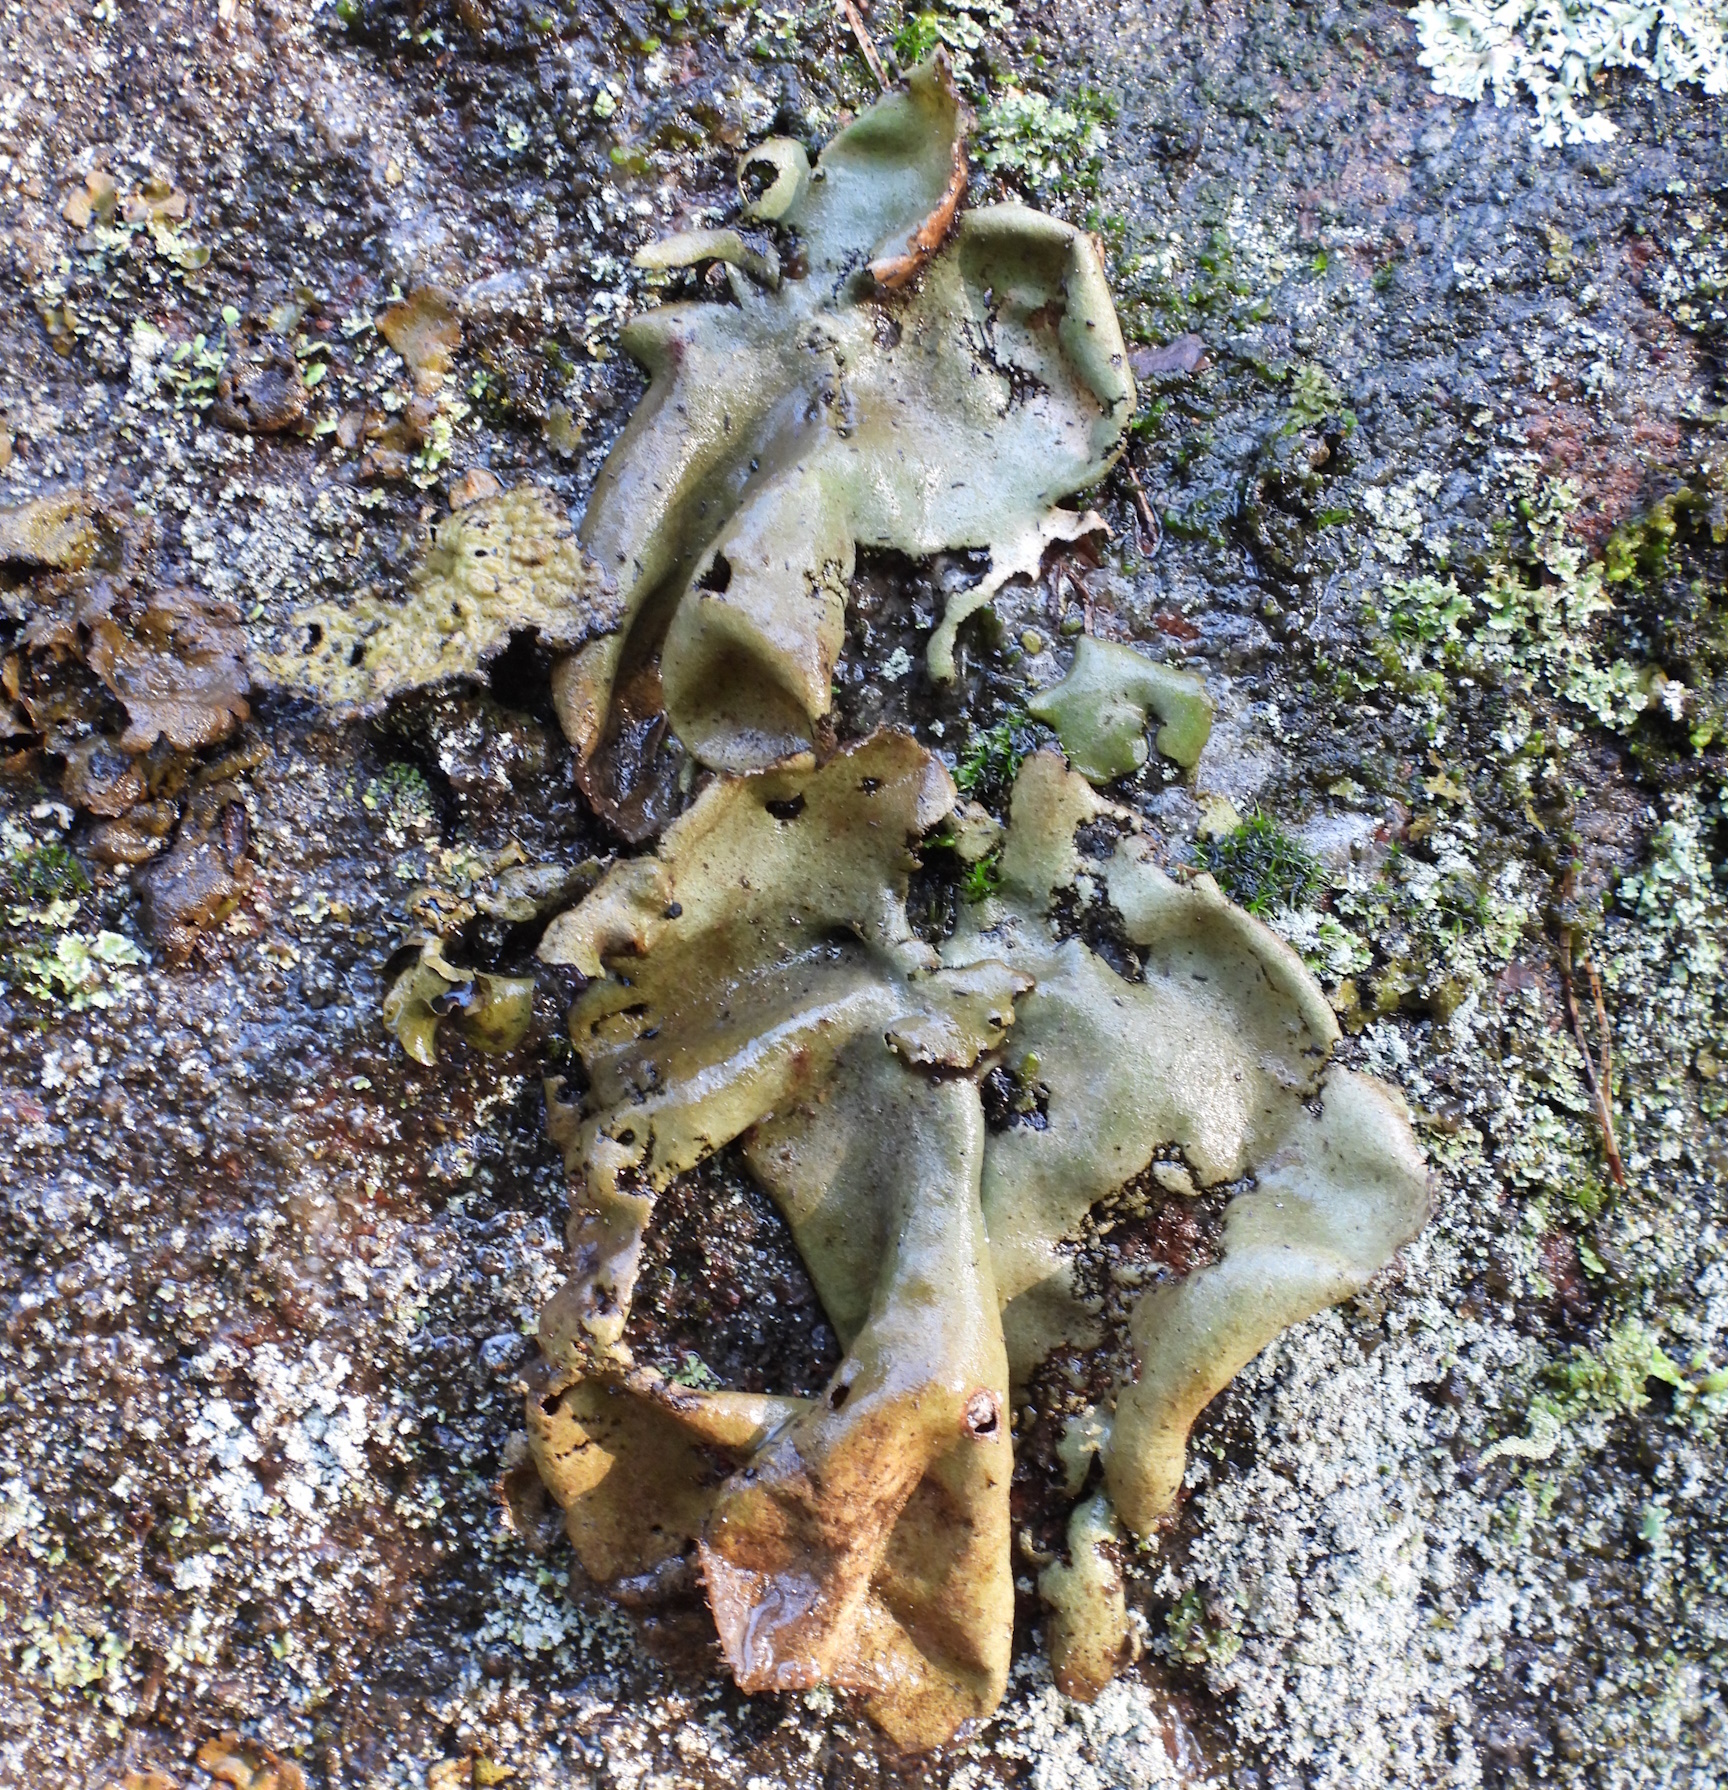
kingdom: Fungi
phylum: Ascomycota
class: Lecanoromycetes
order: Umbilicariales
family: Umbilicariaceae
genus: Umbilicaria
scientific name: Umbilicaria hirsuta
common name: Granulating rocktripe lichen
